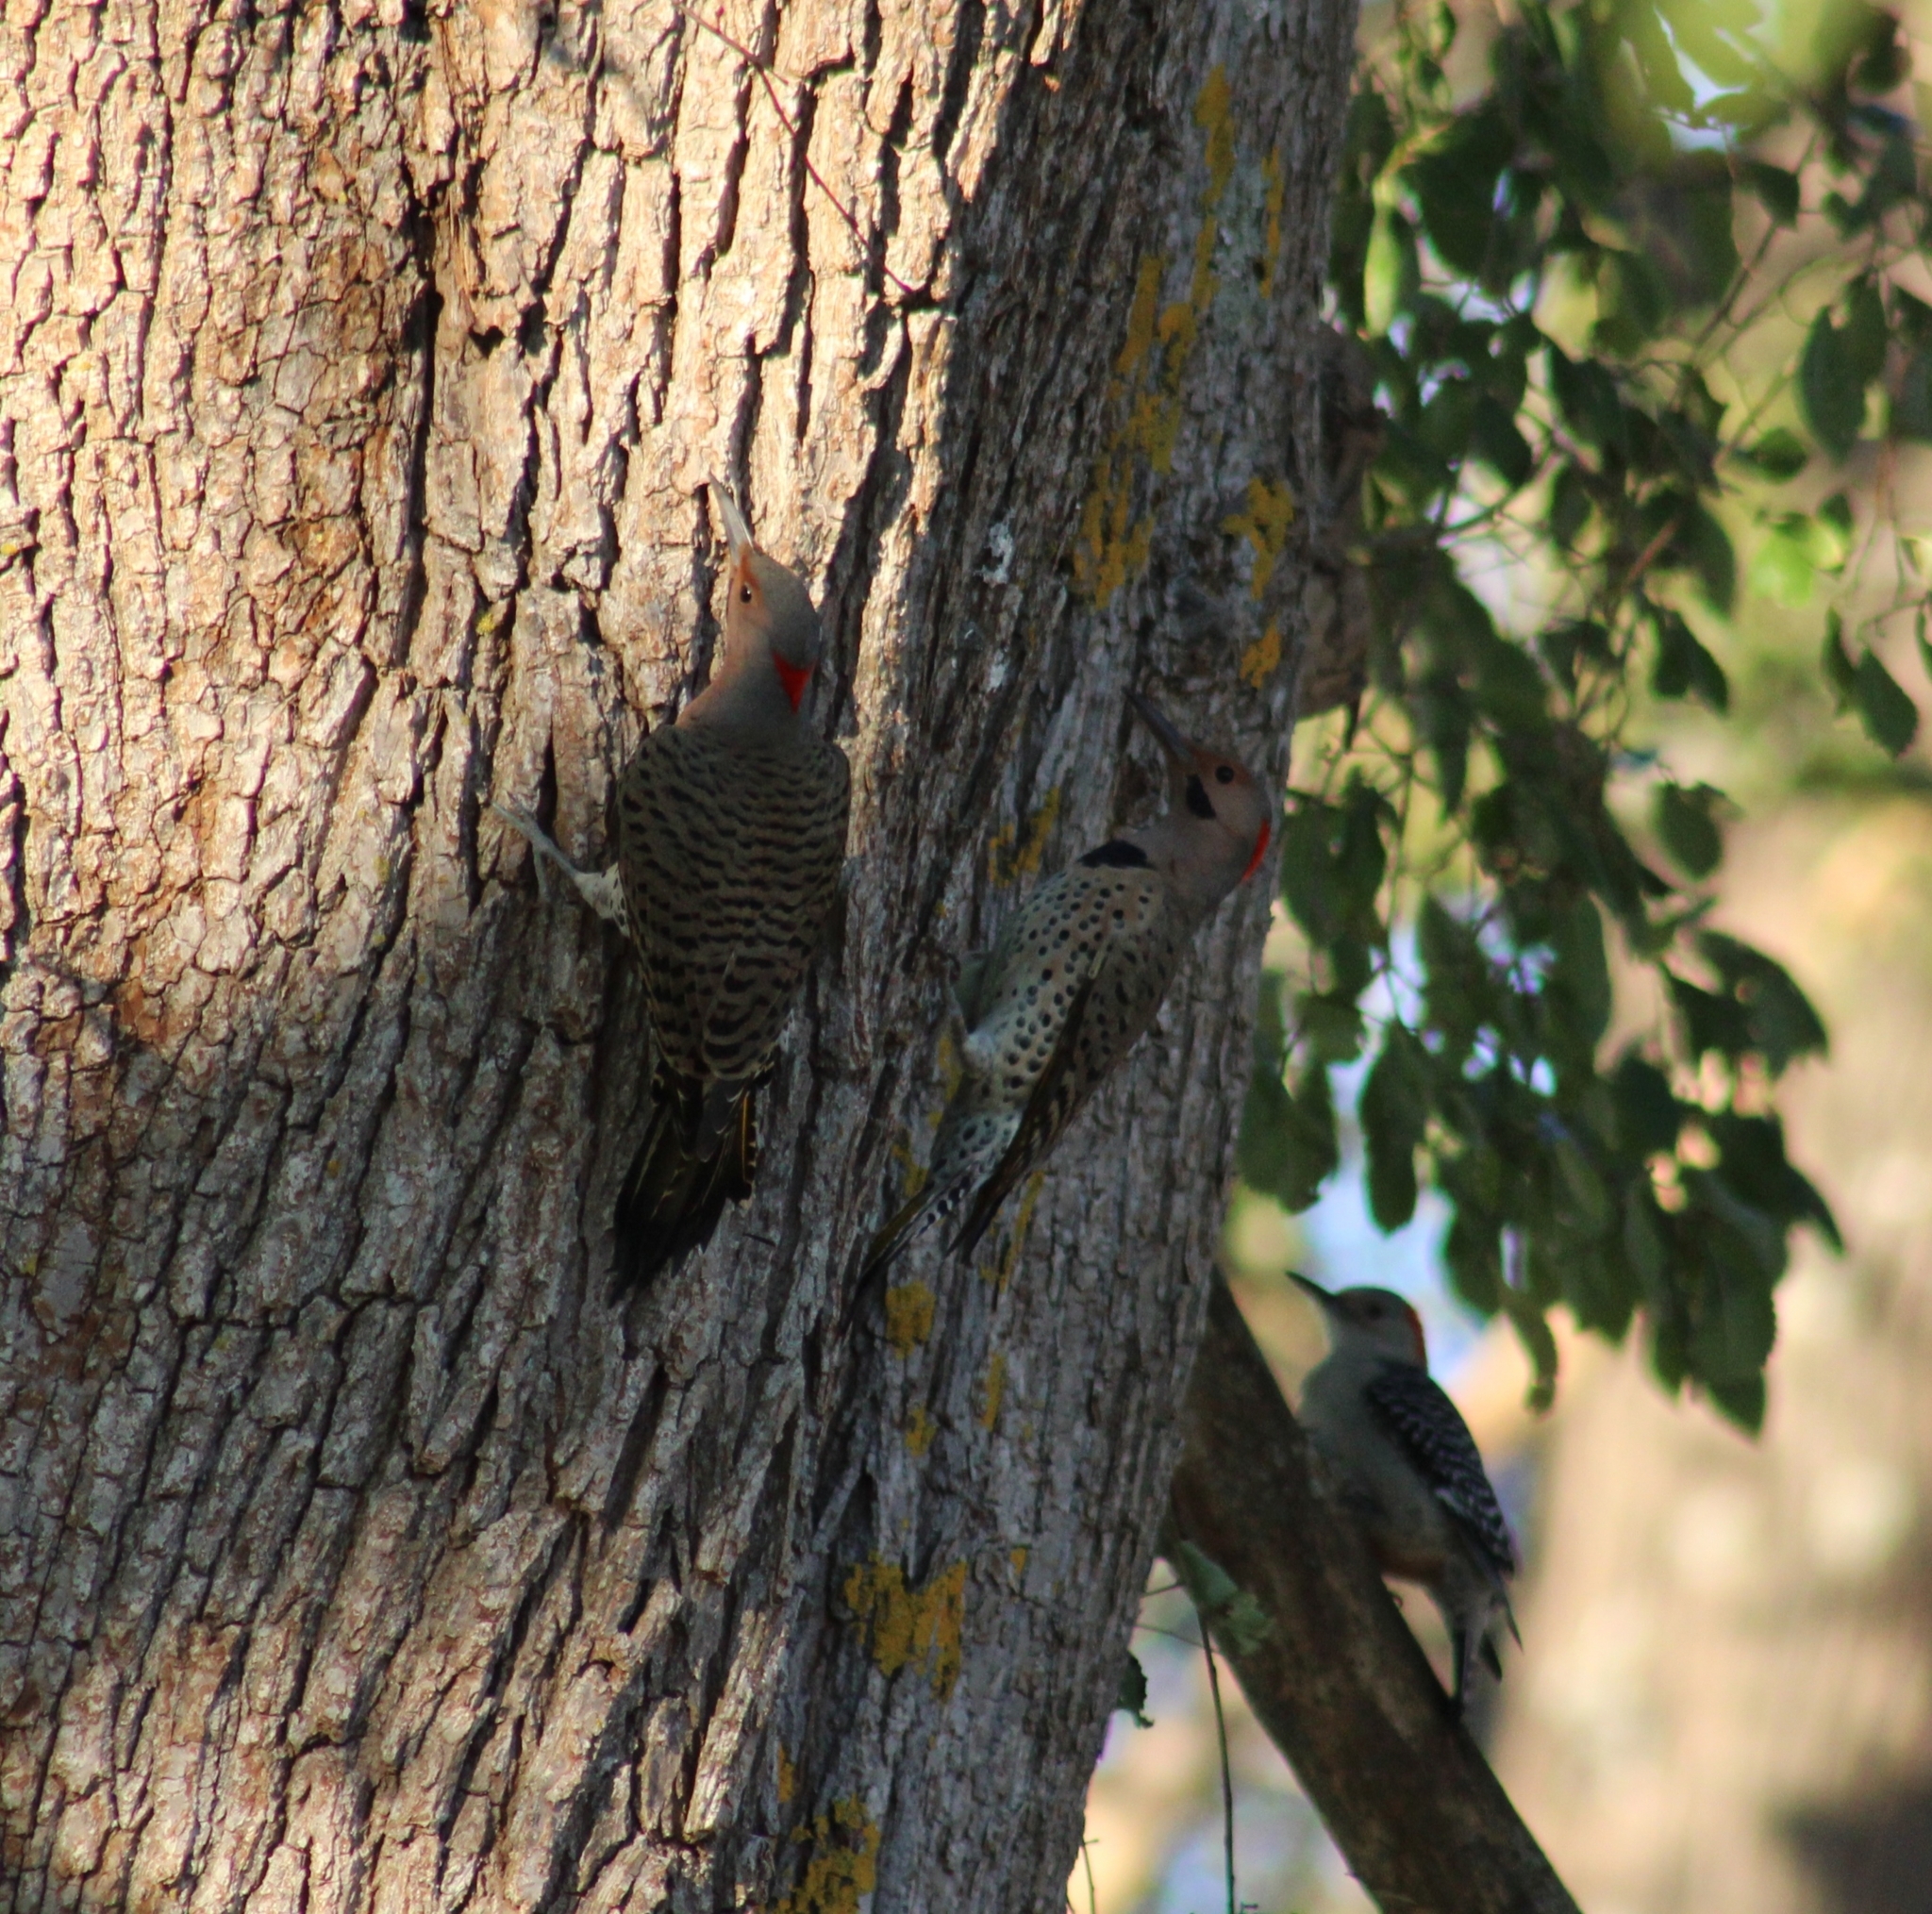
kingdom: Animalia
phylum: Chordata
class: Aves
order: Piciformes
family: Picidae
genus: Colaptes
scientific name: Colaptes auratus
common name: Northern flicker
